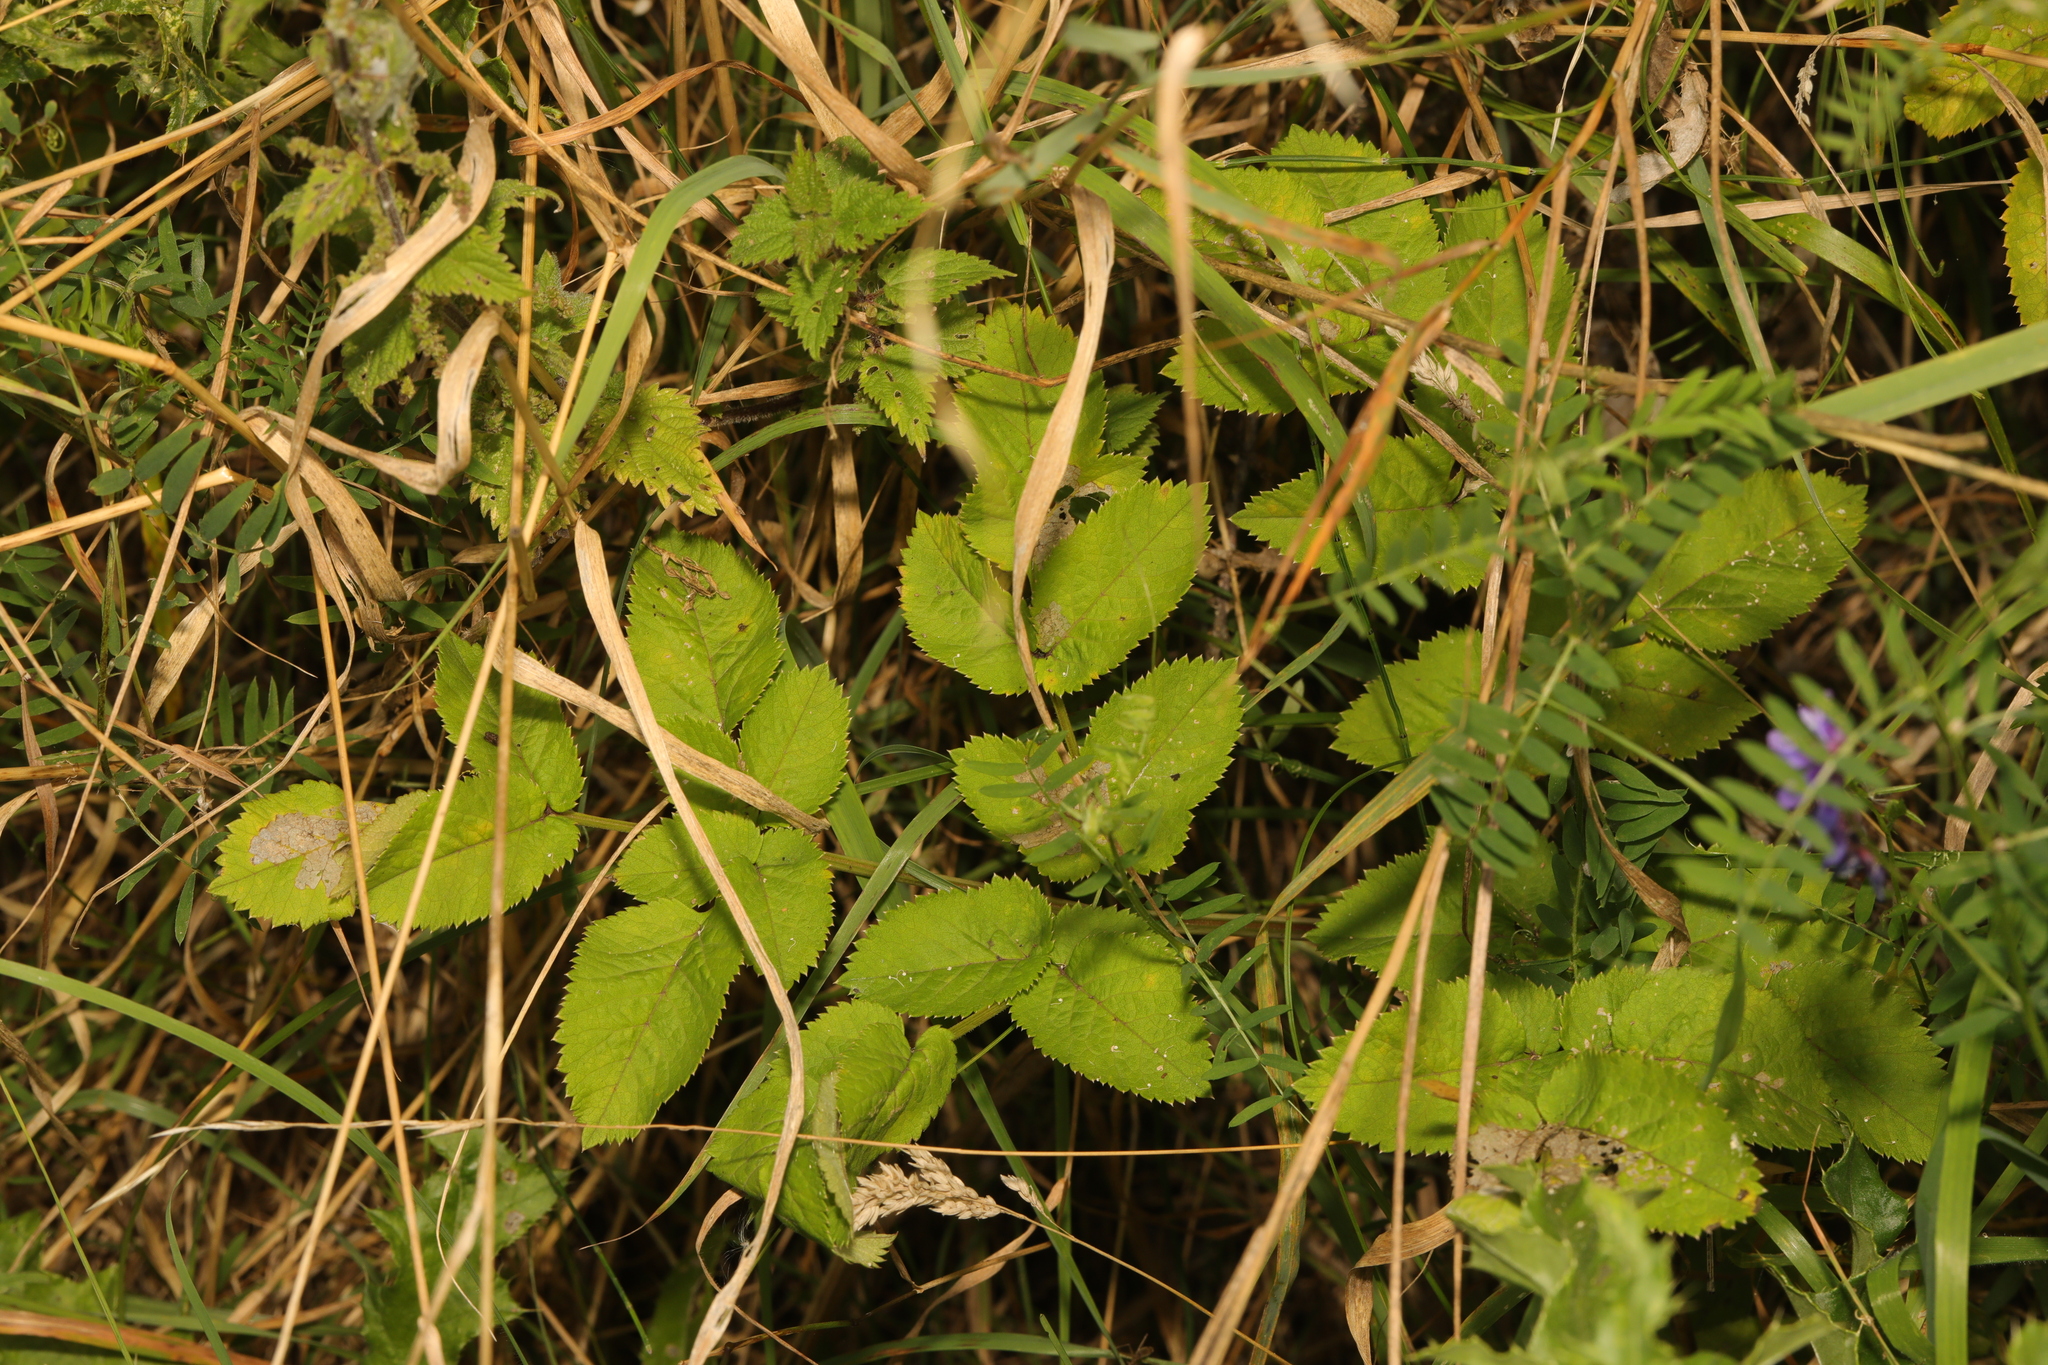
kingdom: Plantae
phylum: Tracheophyta
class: Magnoliopsida
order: Apiales
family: Apiaceae
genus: Angelica
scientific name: Angelica sylvestris
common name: Wild angelica
